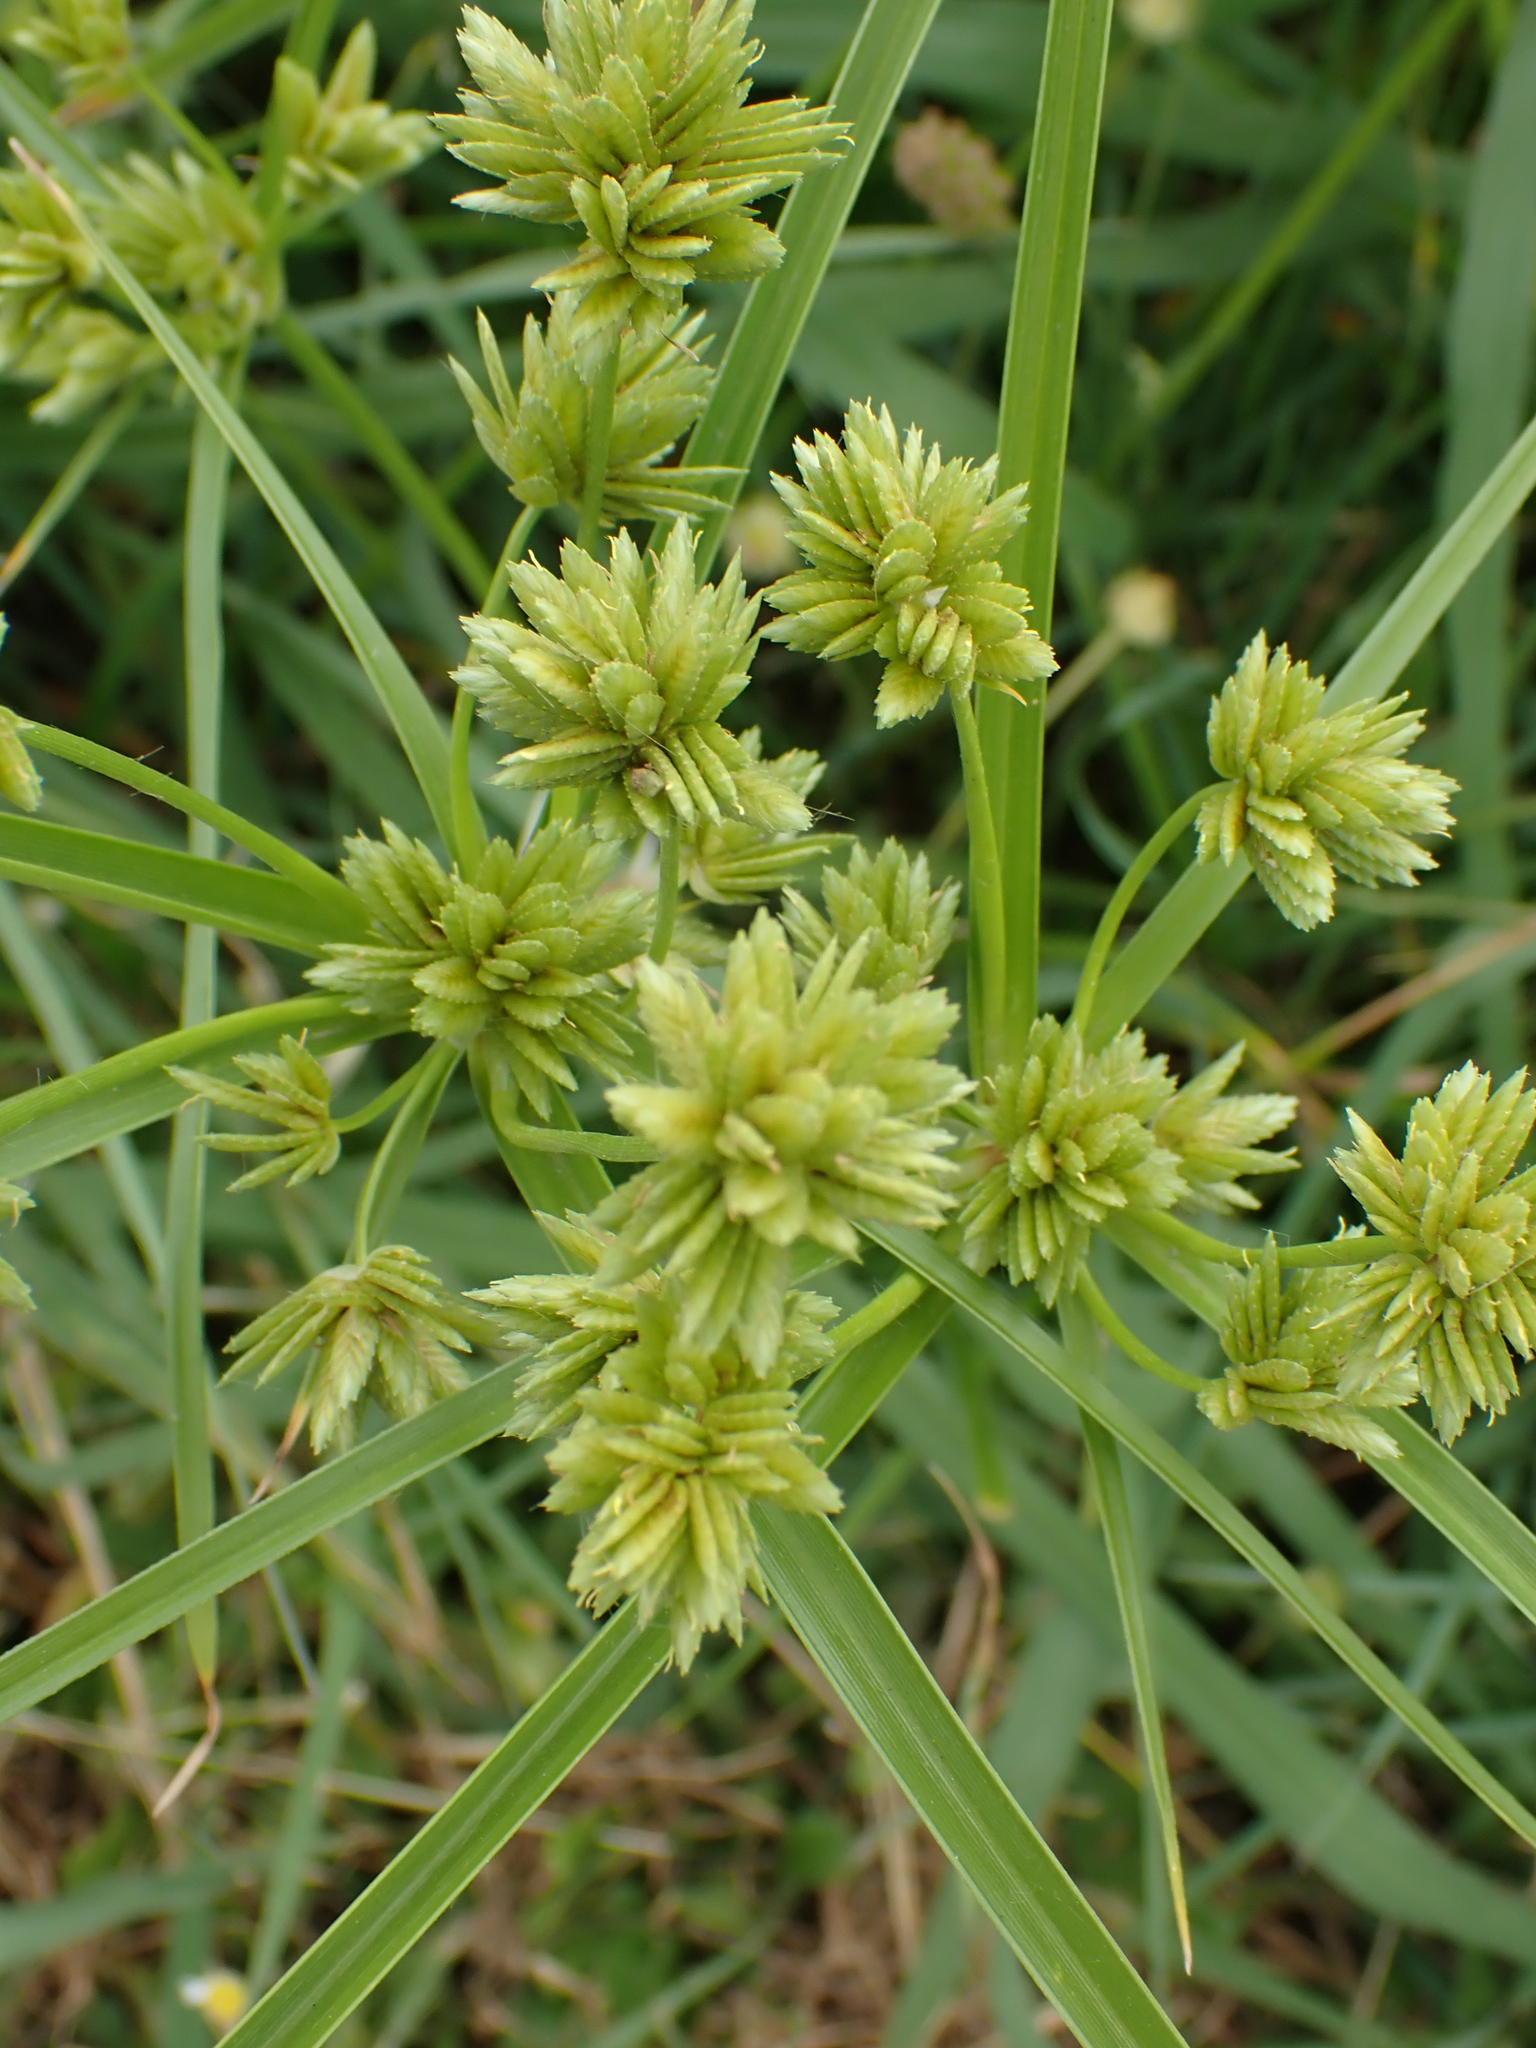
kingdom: Plantae
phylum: Tracheophyta
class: Liliopsida
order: Poales
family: Cyperaceae
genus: Cyperus
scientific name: Cyperus eragrostis
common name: Tall flatsedge
